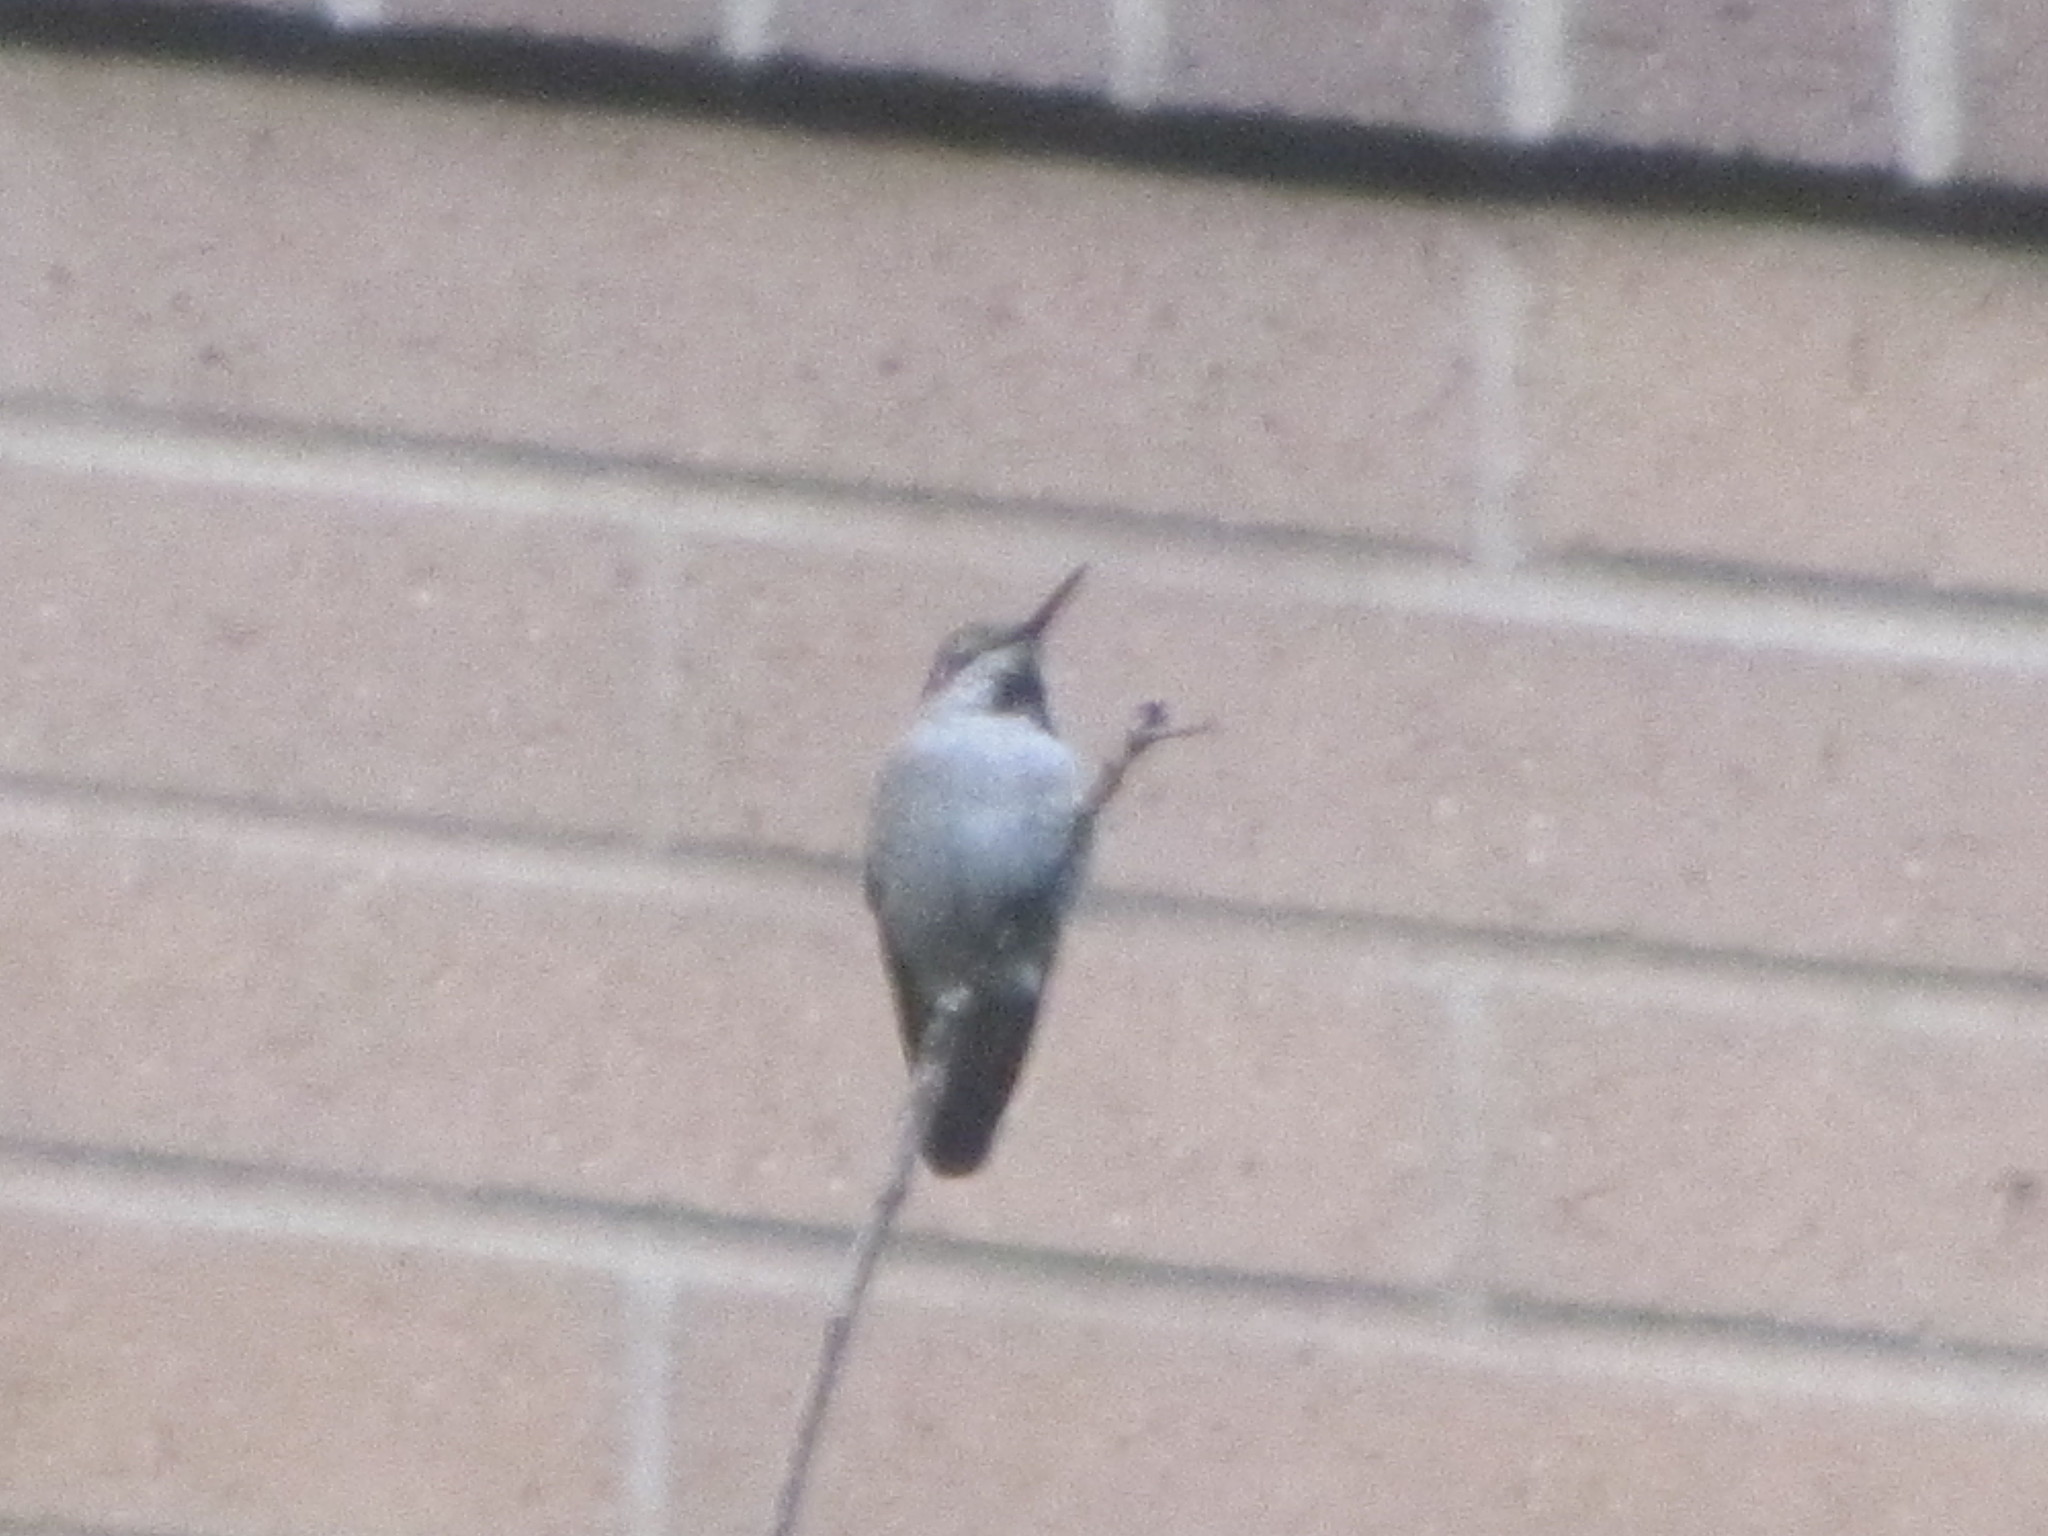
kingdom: Animalia
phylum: Chordata
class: Aves
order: Apodiformes
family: Trochilidae
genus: Calypte
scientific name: Calypte anna
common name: Anna's hummingbird
